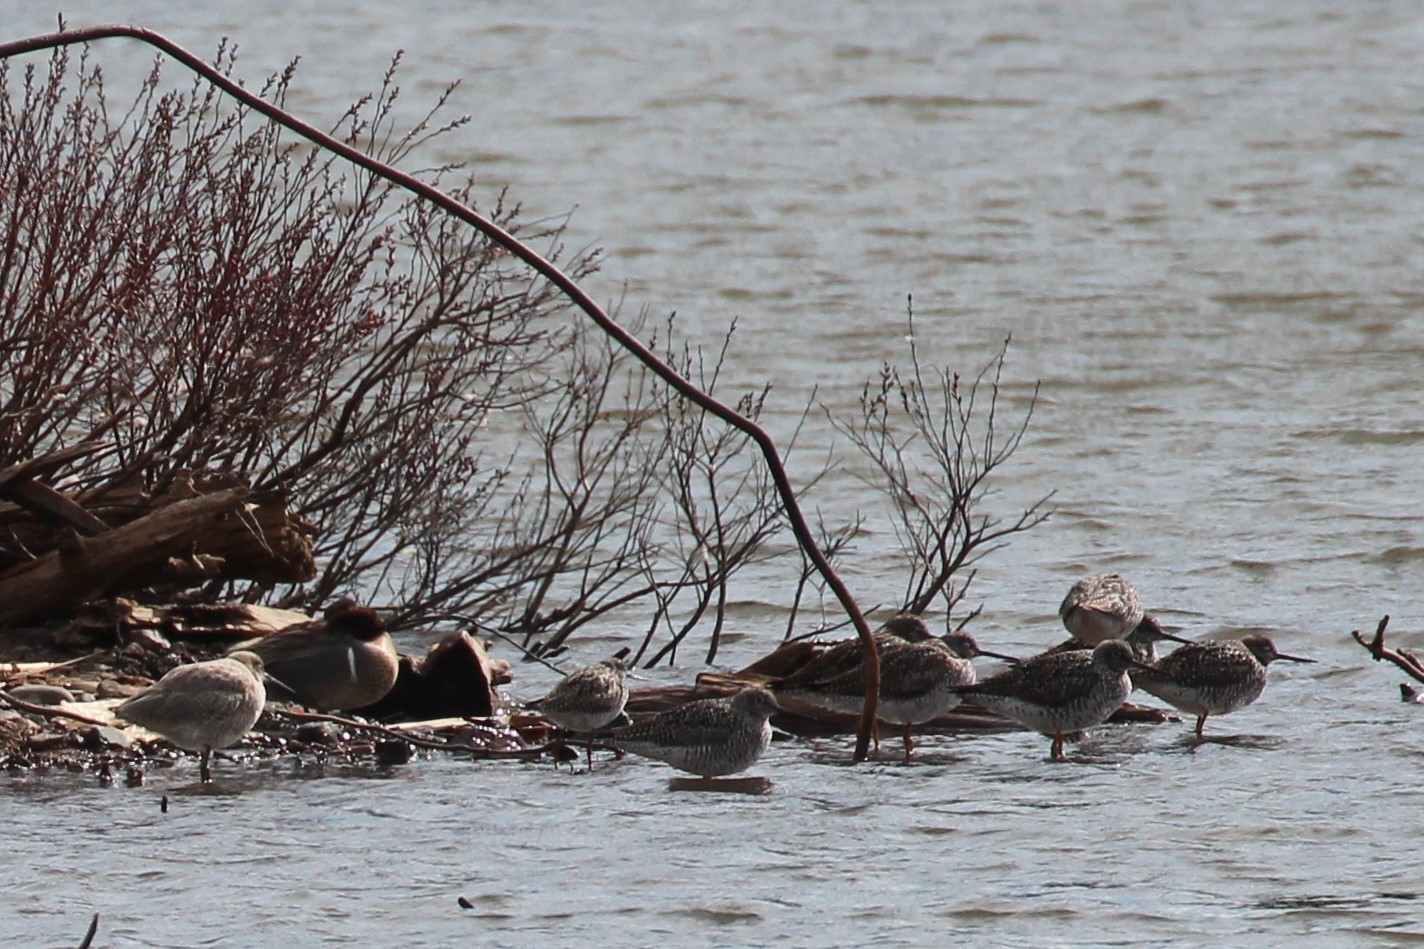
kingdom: Animalia
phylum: Chordata
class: Aves
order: Charadriiformes
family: Scolopacidae
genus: Tringa
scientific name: Tringa semipalmata
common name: Willet
